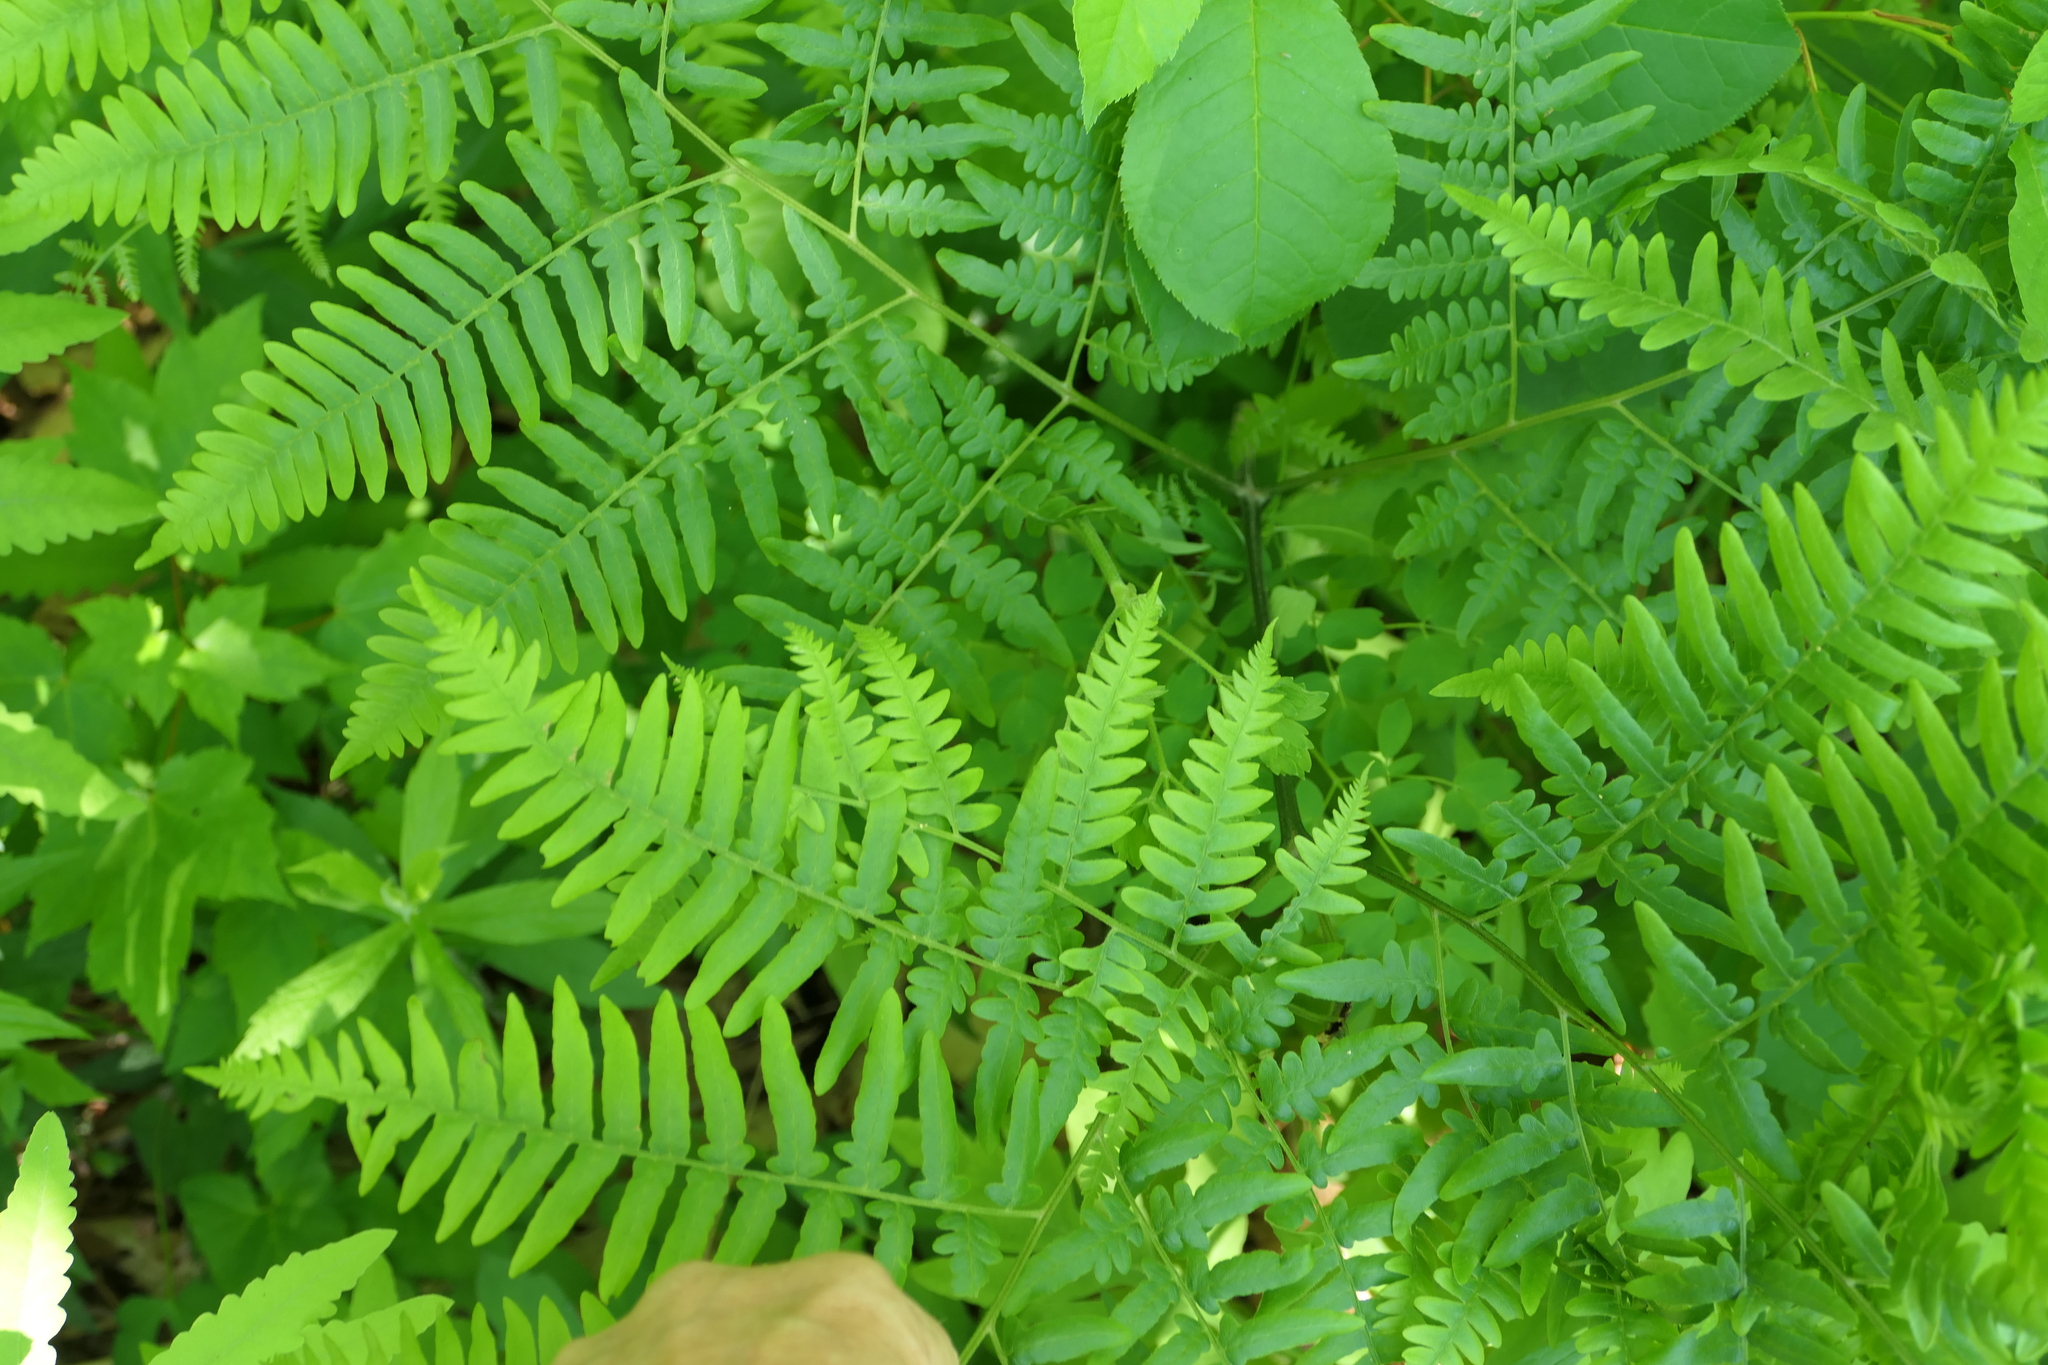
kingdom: Plantae
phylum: Tracheophyta
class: Polypodiopsida
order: Polypodiales
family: Dennstaedtiaceae
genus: Pteridium
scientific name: Pteridium aquilinum
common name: Bracken
